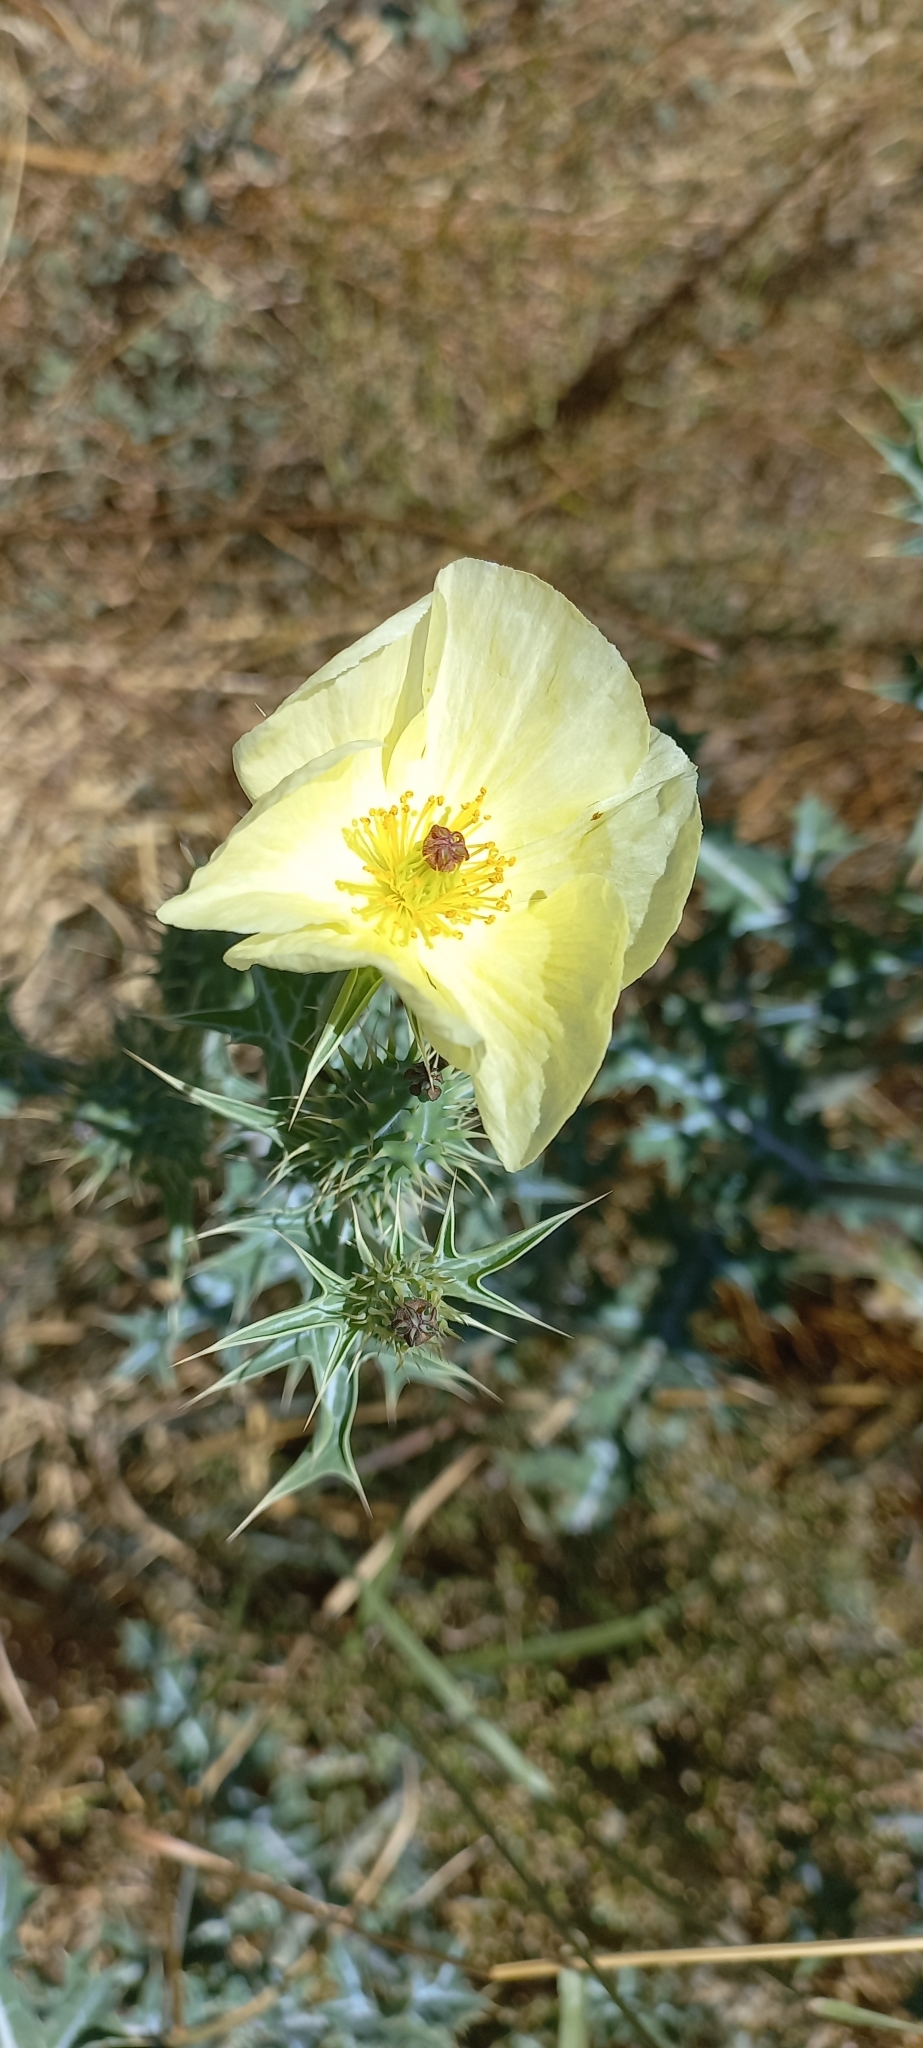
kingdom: Plantae
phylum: Tracheophyta
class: Magnoliopsida
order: Ranunculales
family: Papaveraceae
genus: Argemone
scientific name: Argemone ochroleuca
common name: White-flower mexican-poppy
